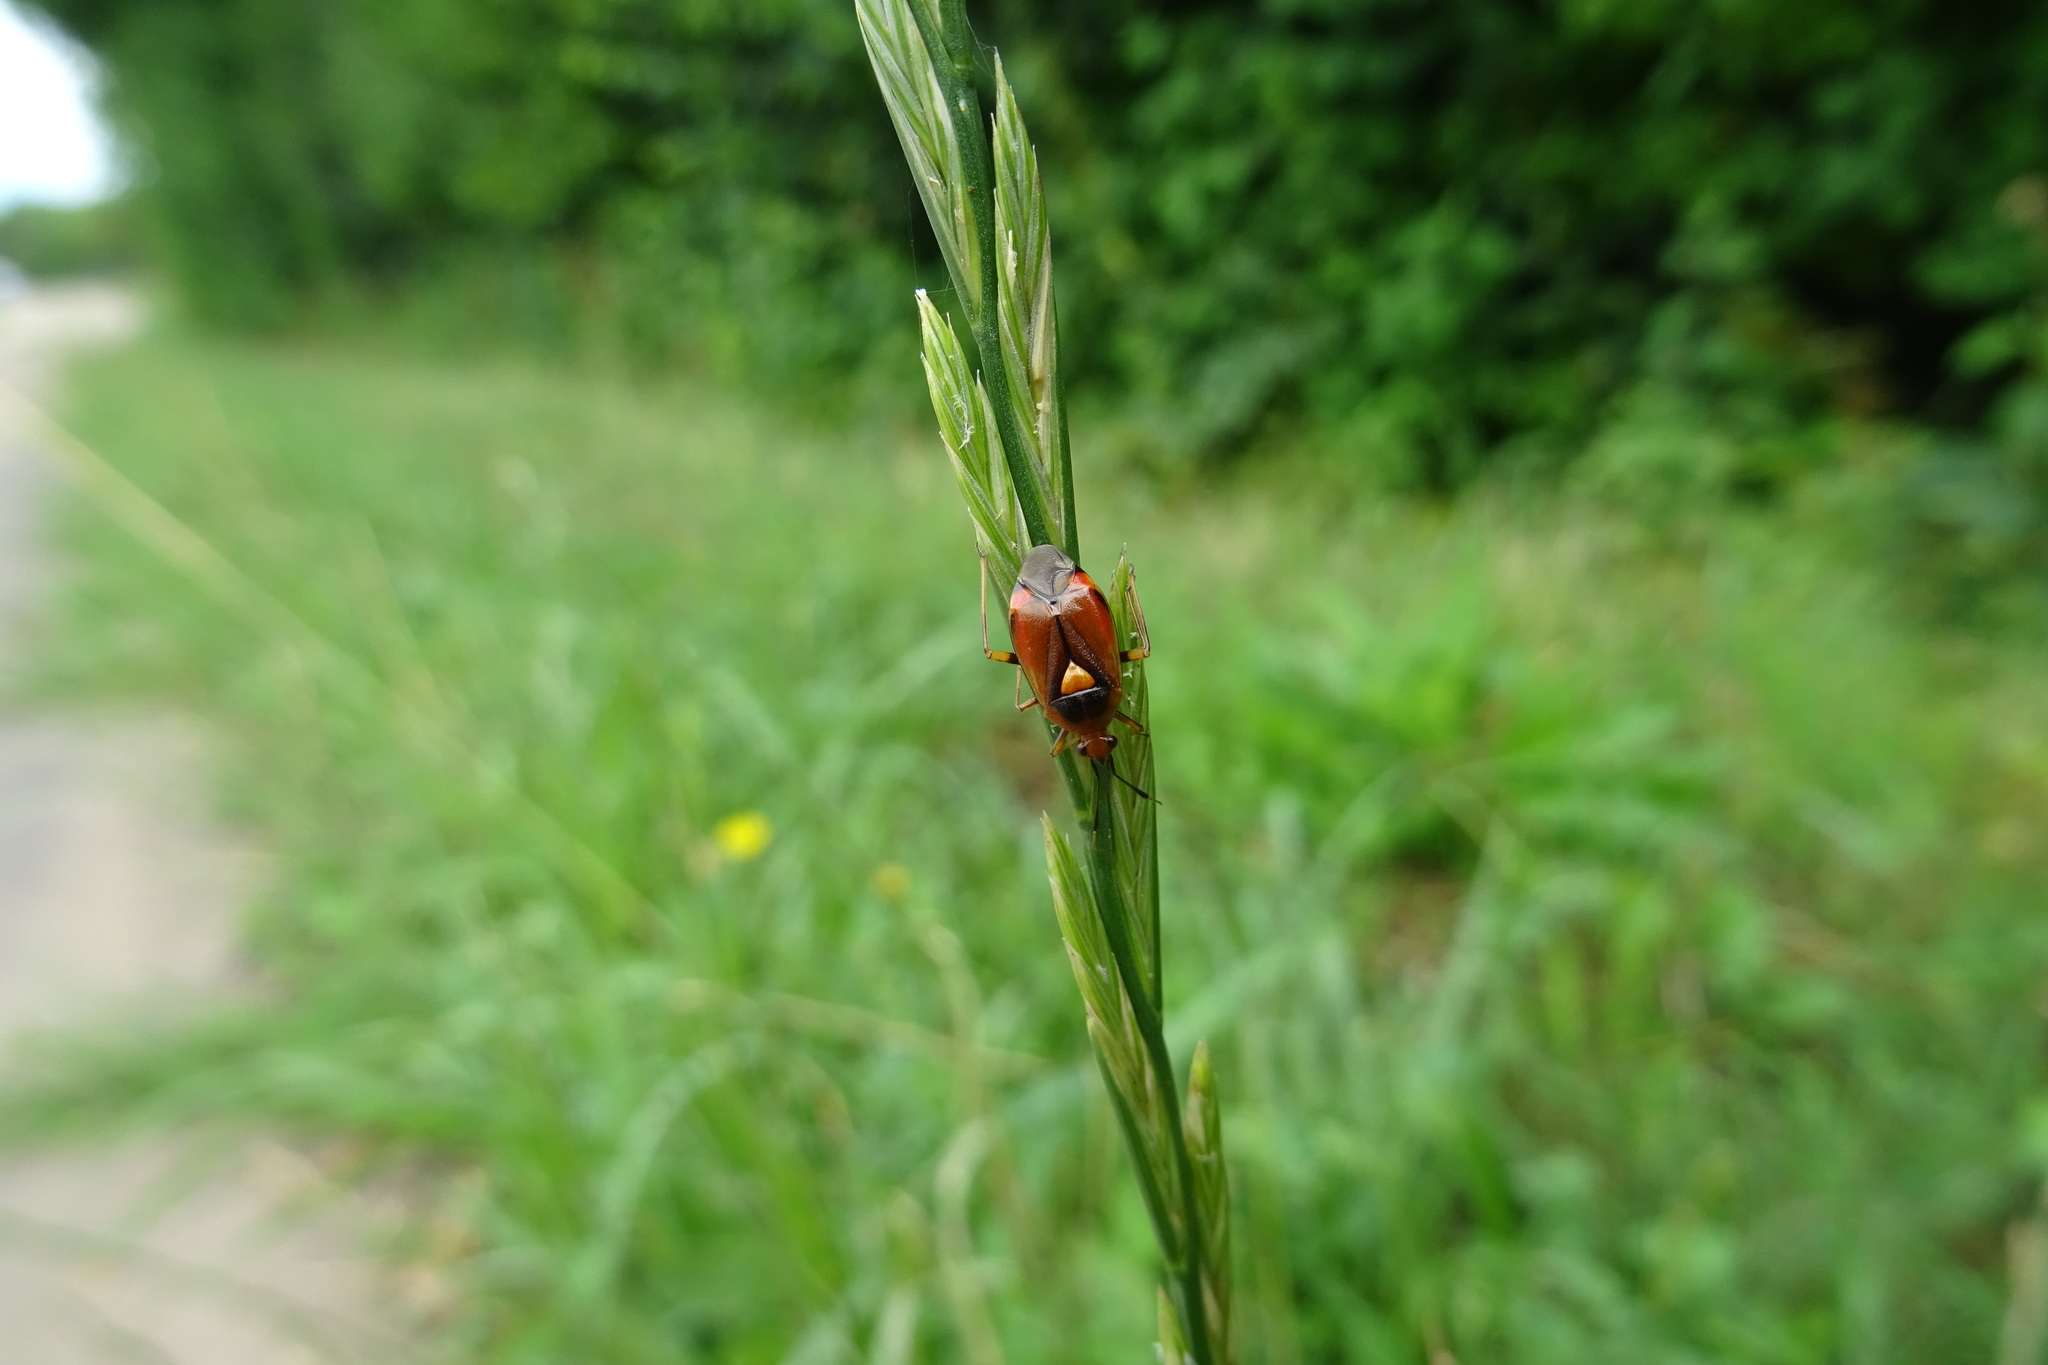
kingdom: Animalia
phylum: Arthropoda
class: Insecta
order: Hemiptera
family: Miridae
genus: Deraeocoris
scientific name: Deraeocoris ruber
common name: Plant bug
